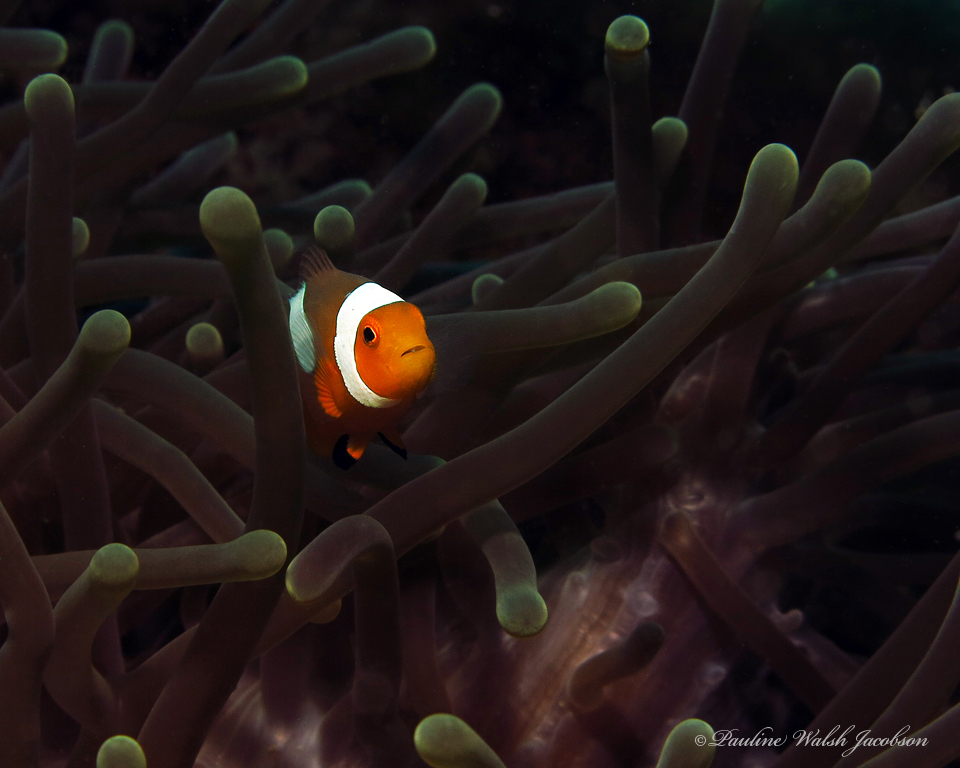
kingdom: Animalia
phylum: Chordata
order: Perciformes
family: Pomacentridae
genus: Amphiprion
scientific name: Amphiprion ocellaris
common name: Clown anemonefish
